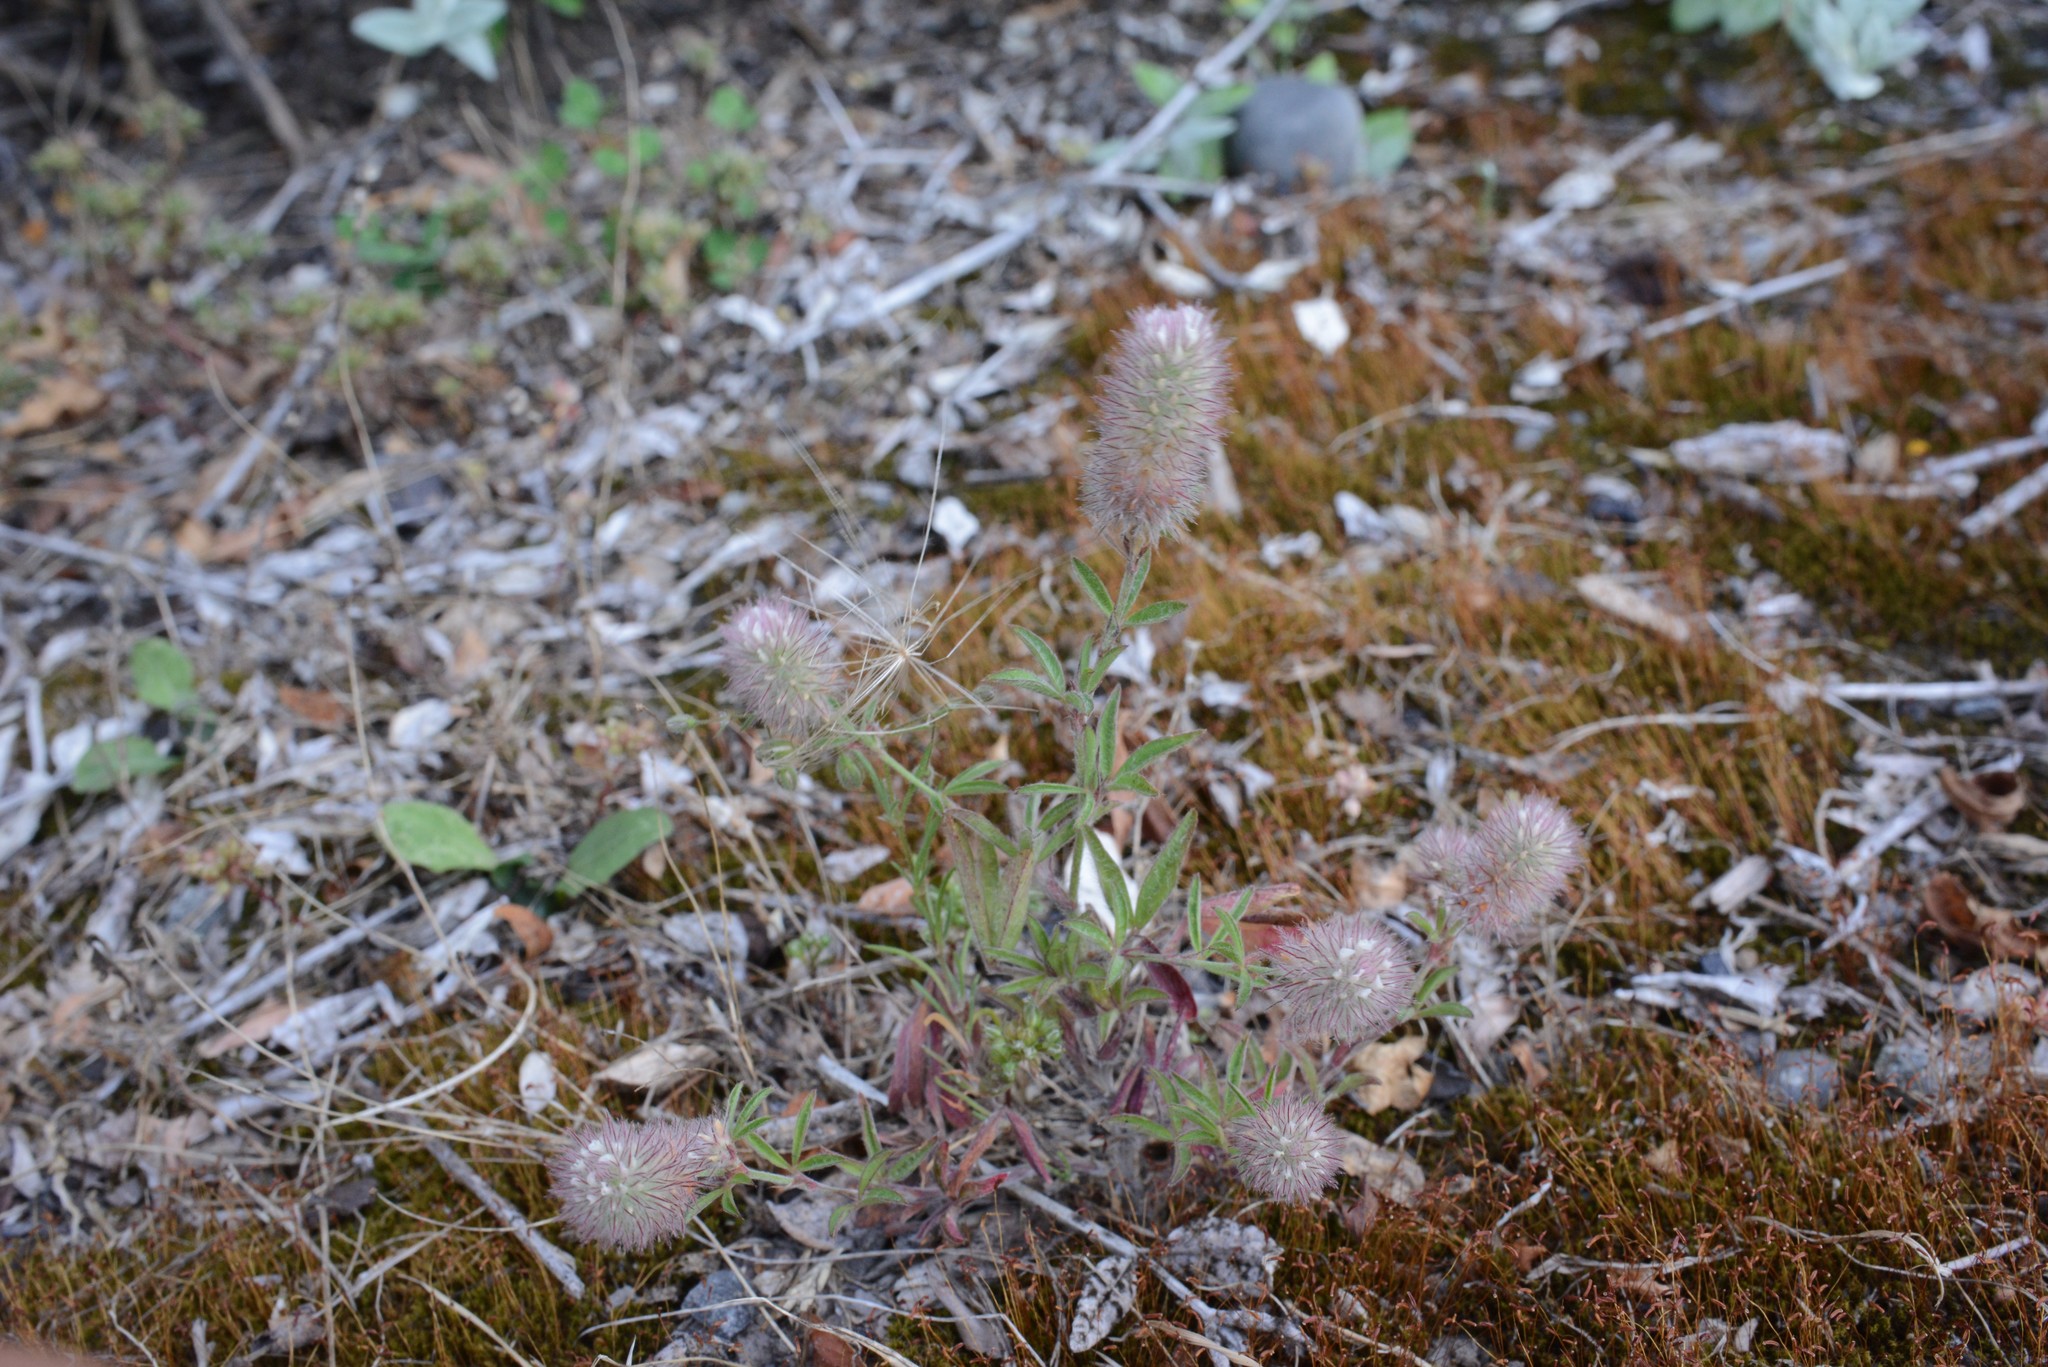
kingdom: Plantae
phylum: Tracheophyta
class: Magnoliopsida
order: Fabales
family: Fabaceae
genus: Trifolium
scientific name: Trifolium arvense
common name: Hare's-foot clover
